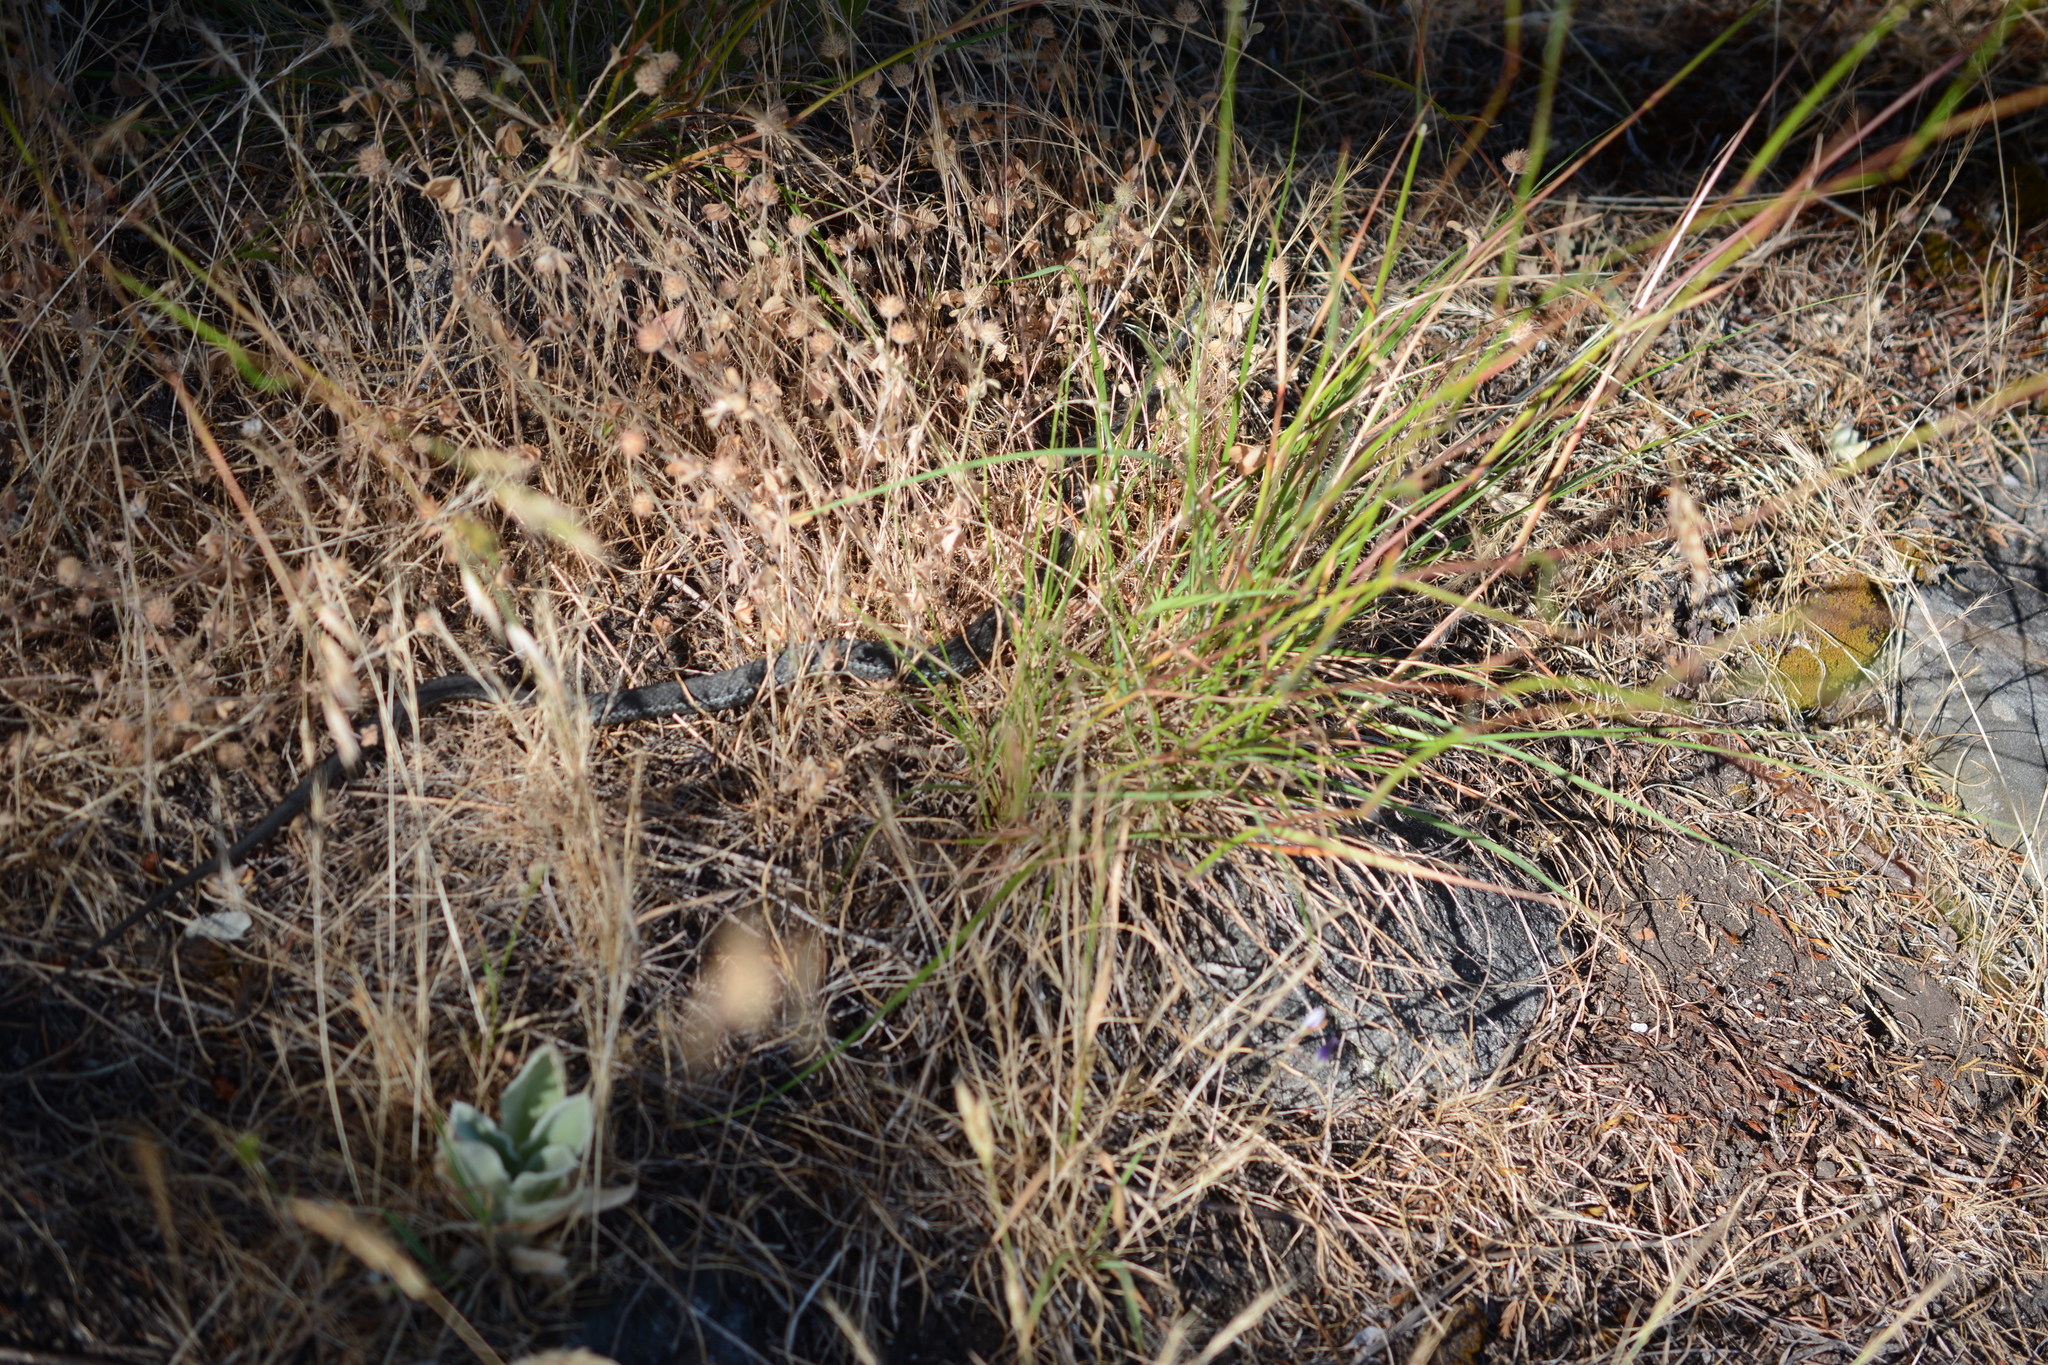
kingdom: Animalia
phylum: Chordata
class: Squamata
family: Colubridae
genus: Thamnophis
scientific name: Thamnophis elegans
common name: Western terrestrial garter snake
